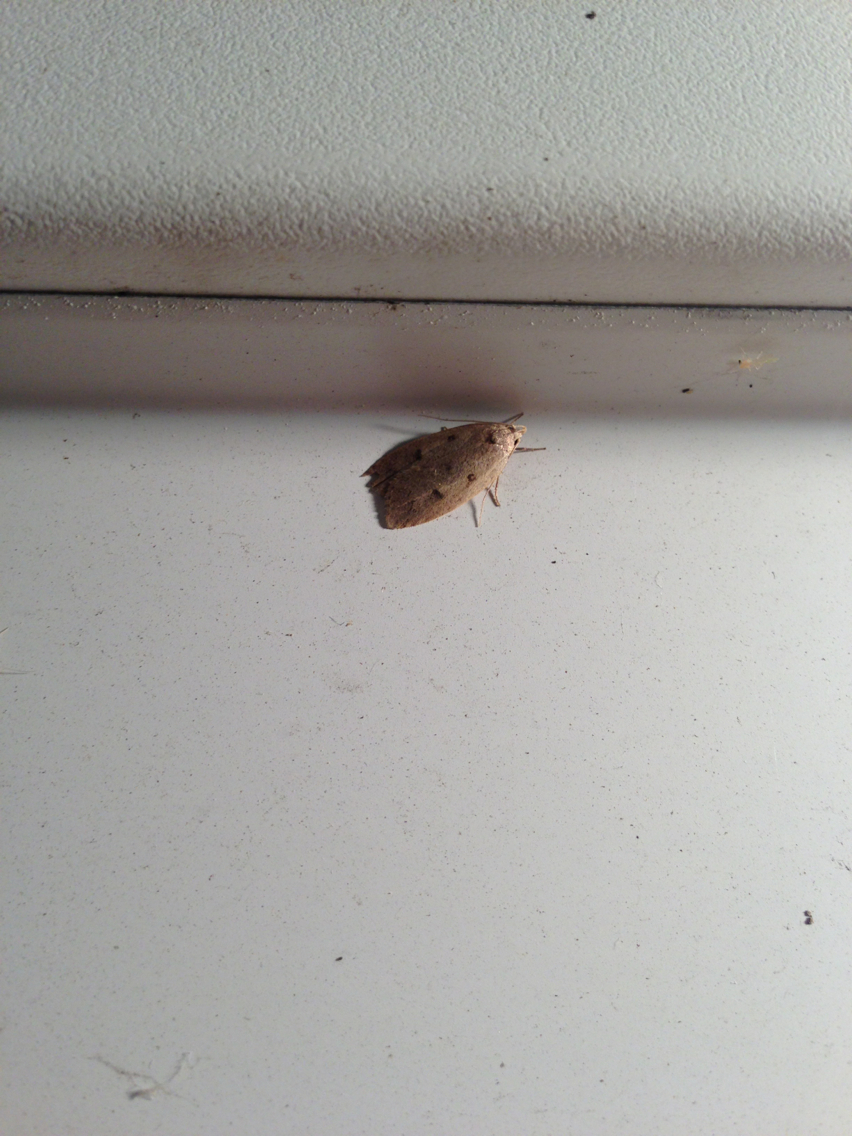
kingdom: Animalia
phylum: Arthropoda
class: Insecta
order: Lepidoptera
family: Peleopodidae
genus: Machimia
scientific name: Machimia tentoriferella
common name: Gold-striped leaftier moth
